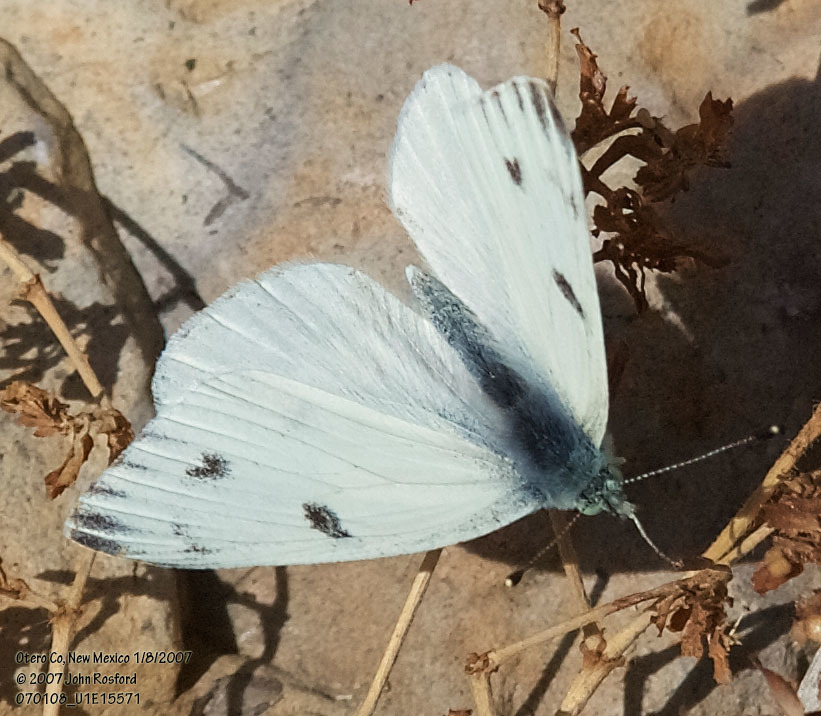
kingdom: Animalia
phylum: Arthropoda
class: Insecta
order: Lepidoptera
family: Pieridae
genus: Pontia
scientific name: Pontia protodice
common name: Checkered white
